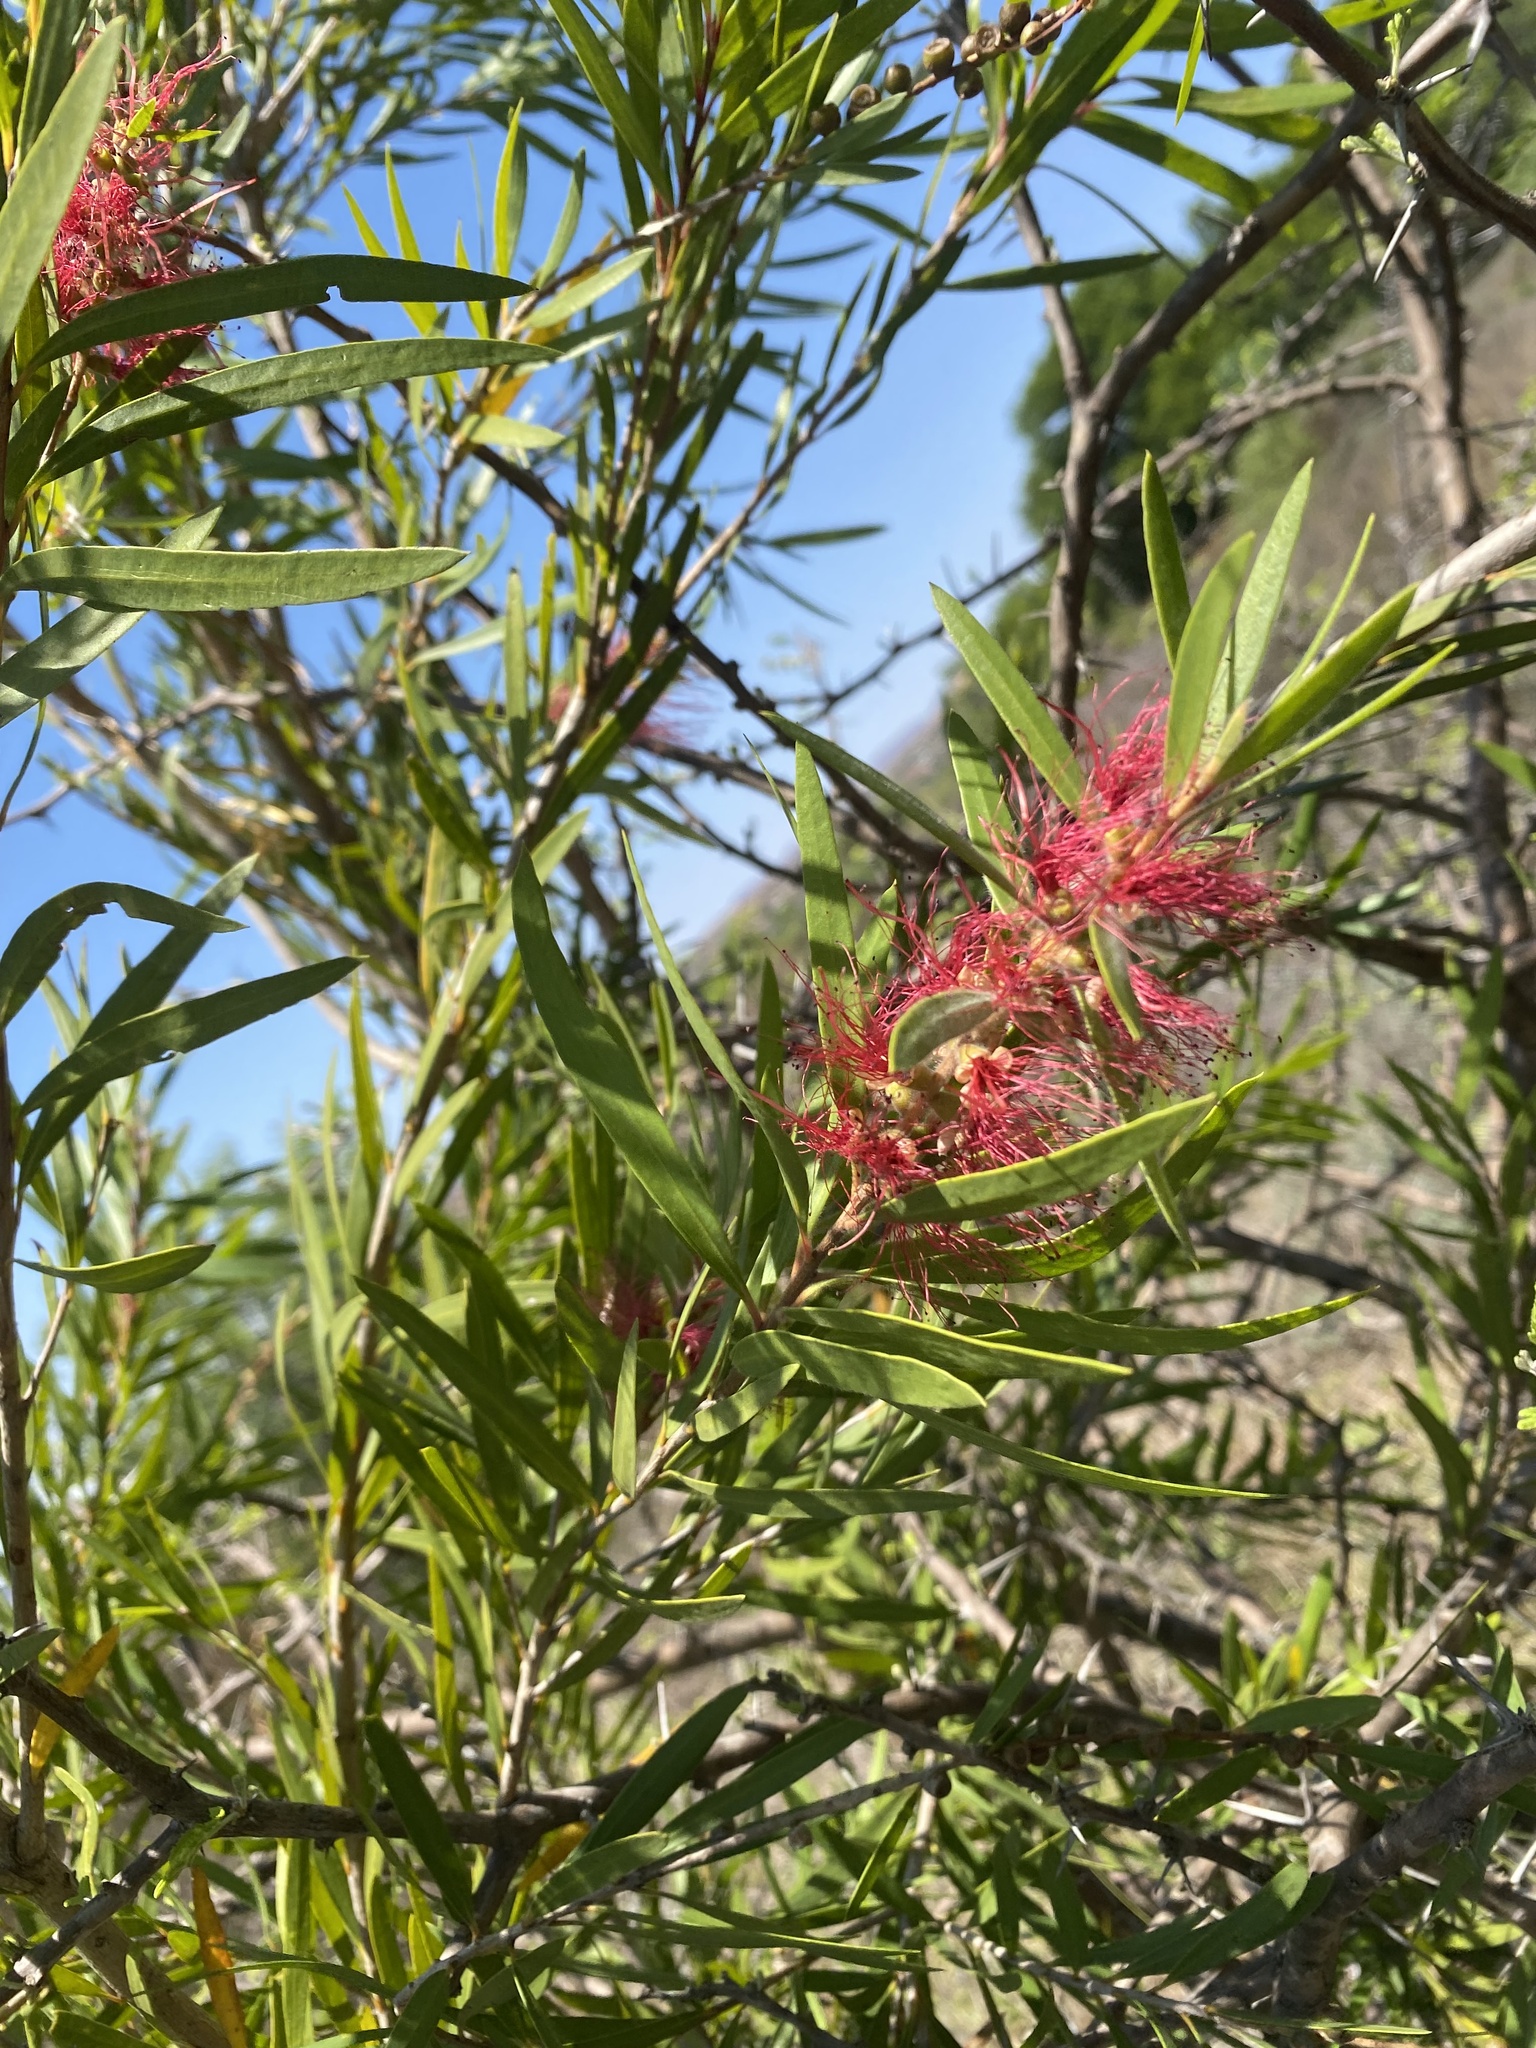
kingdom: Plantae
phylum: Tracheophyta
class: Magnoliopsida
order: Myrtales
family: Myrtaceae
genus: Callistemon
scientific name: Callistemon viminalis
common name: Drooping bottlebrush
